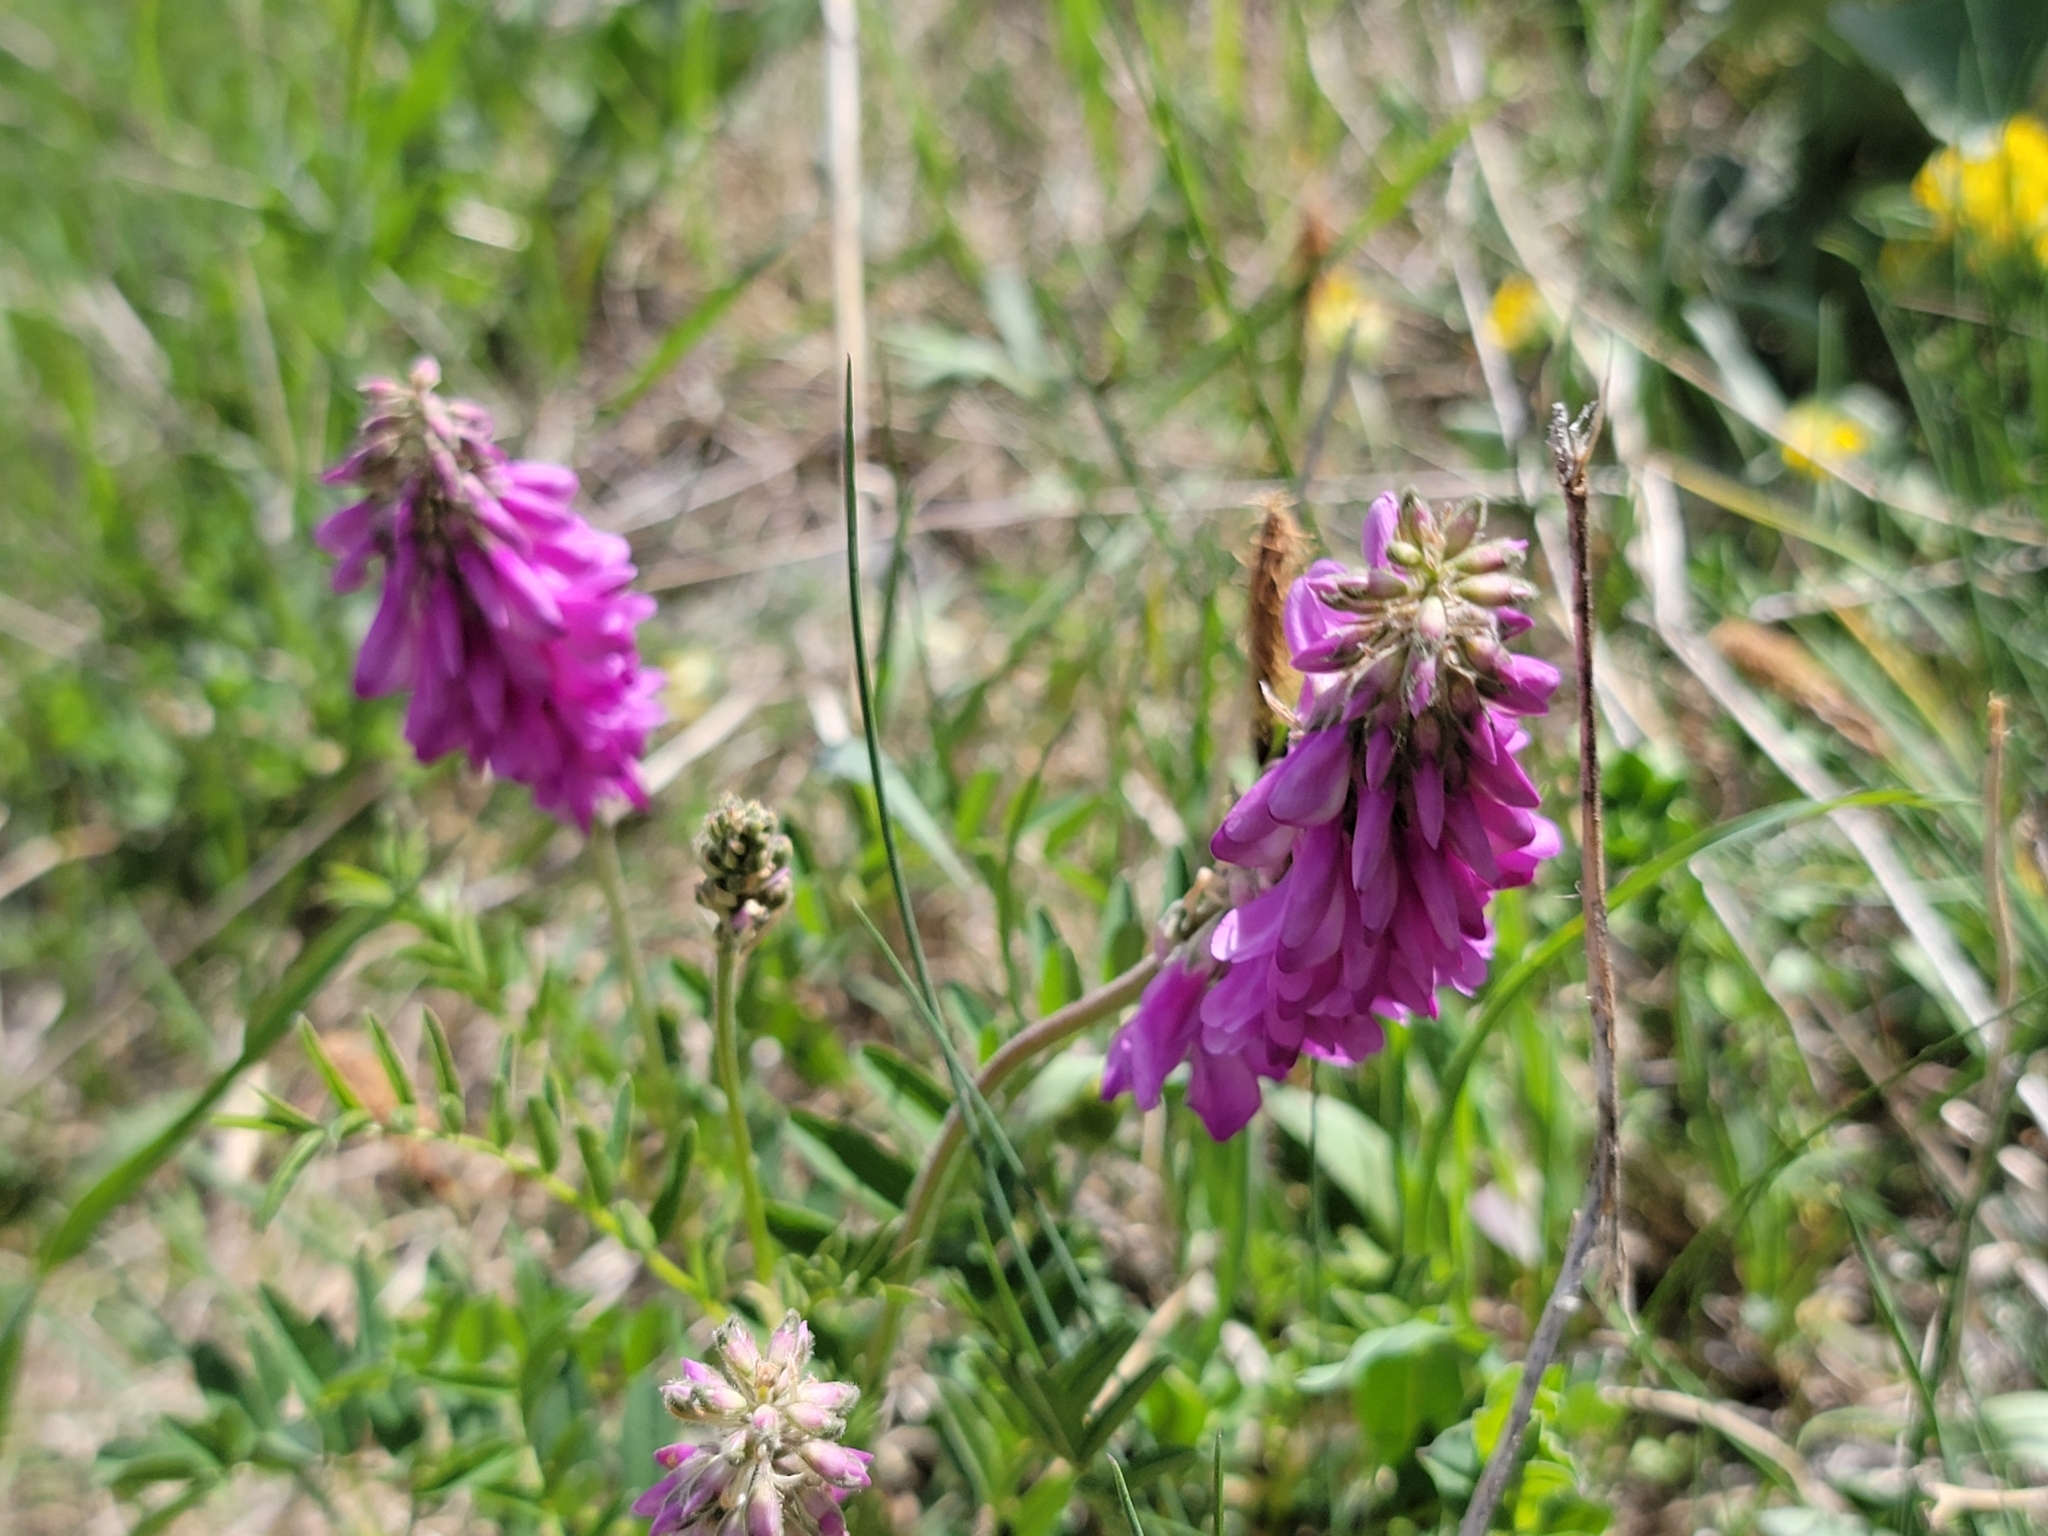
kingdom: Plantae
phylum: Tracheophyta
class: Magnoliopsida
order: Fabales
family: Fabaceae
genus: Hedysarum
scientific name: Hedysarum hedysaroides
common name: Alpine french-honeysuckle
